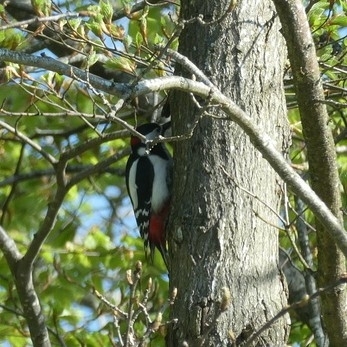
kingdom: Animalia
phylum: Chordata
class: Aves
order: Piciformes
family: Picidae
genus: Dendrocopos
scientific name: Dendrocopos major
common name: Great spotted woodpecker
